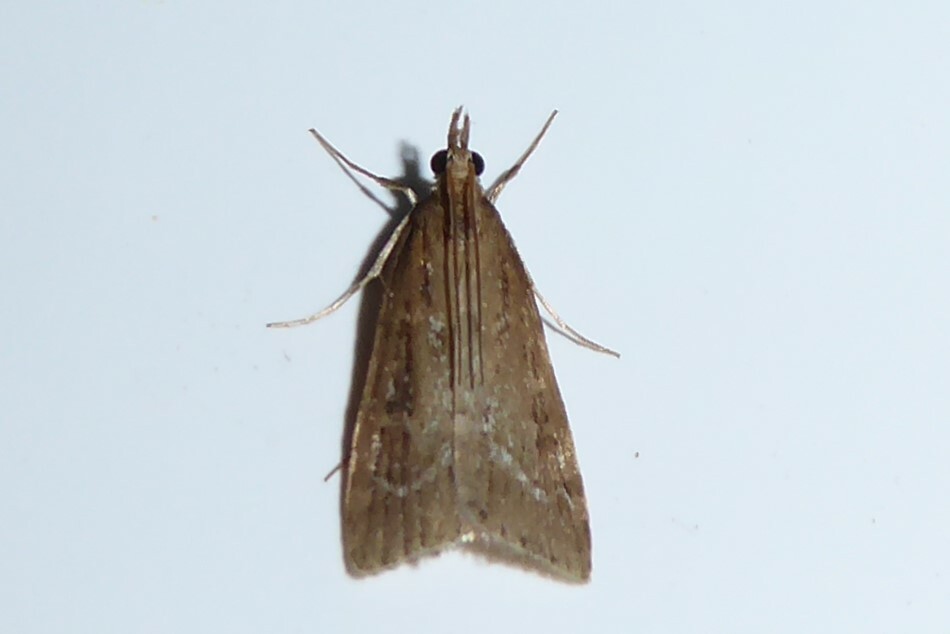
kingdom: Animalia
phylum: Arthropoda
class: Insecta
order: Lepidoptera
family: Crambidae
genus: Eudonia
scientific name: Eudonia octophora
